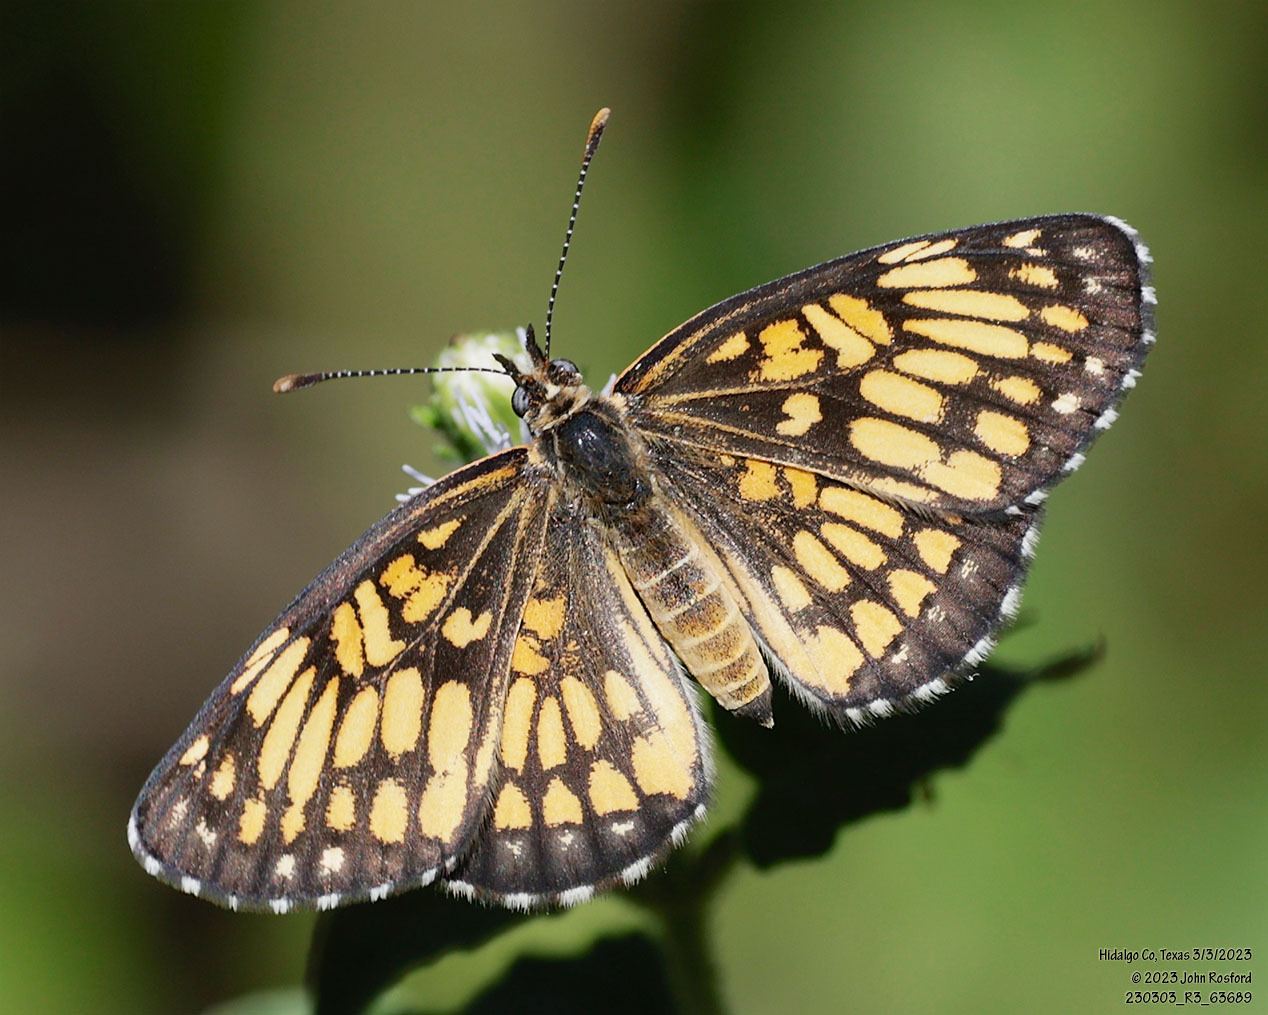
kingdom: Animalia
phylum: Arthropoda
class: Insecta
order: Lepidoptera
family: Nymphalidae
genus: Thessalia
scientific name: Thessalia theona
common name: Nymphalid moth
